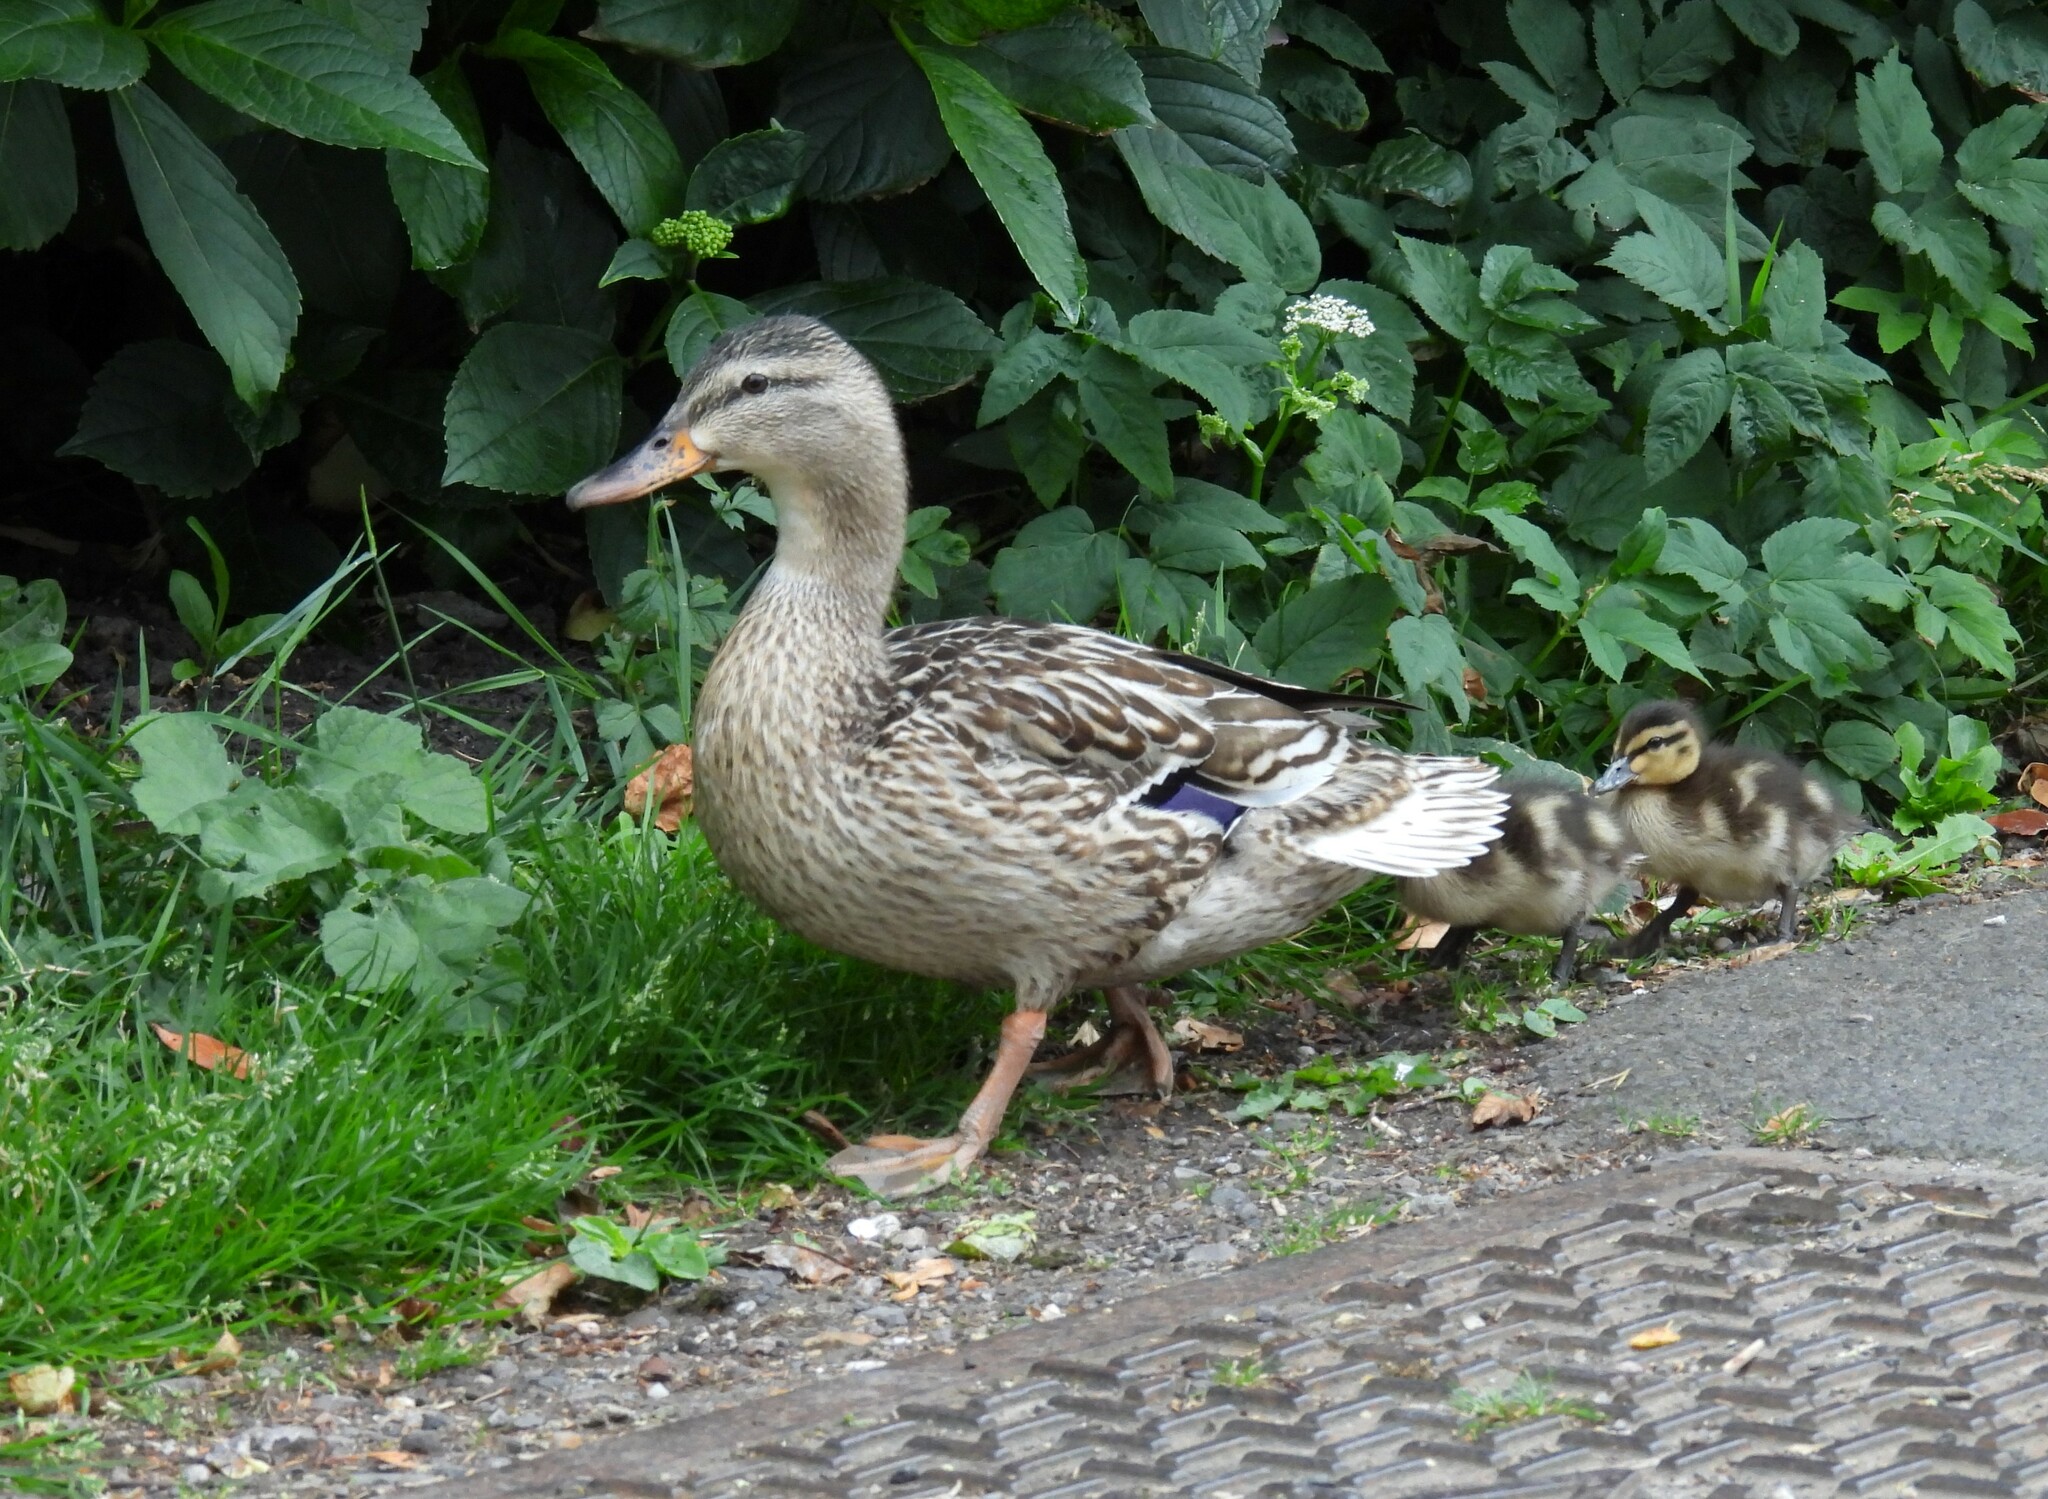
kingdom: Animalia
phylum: Chordata
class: Aves
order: Anseriformes
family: Anatidae
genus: Anas
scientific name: Anas platyrhynchos
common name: Mallard
